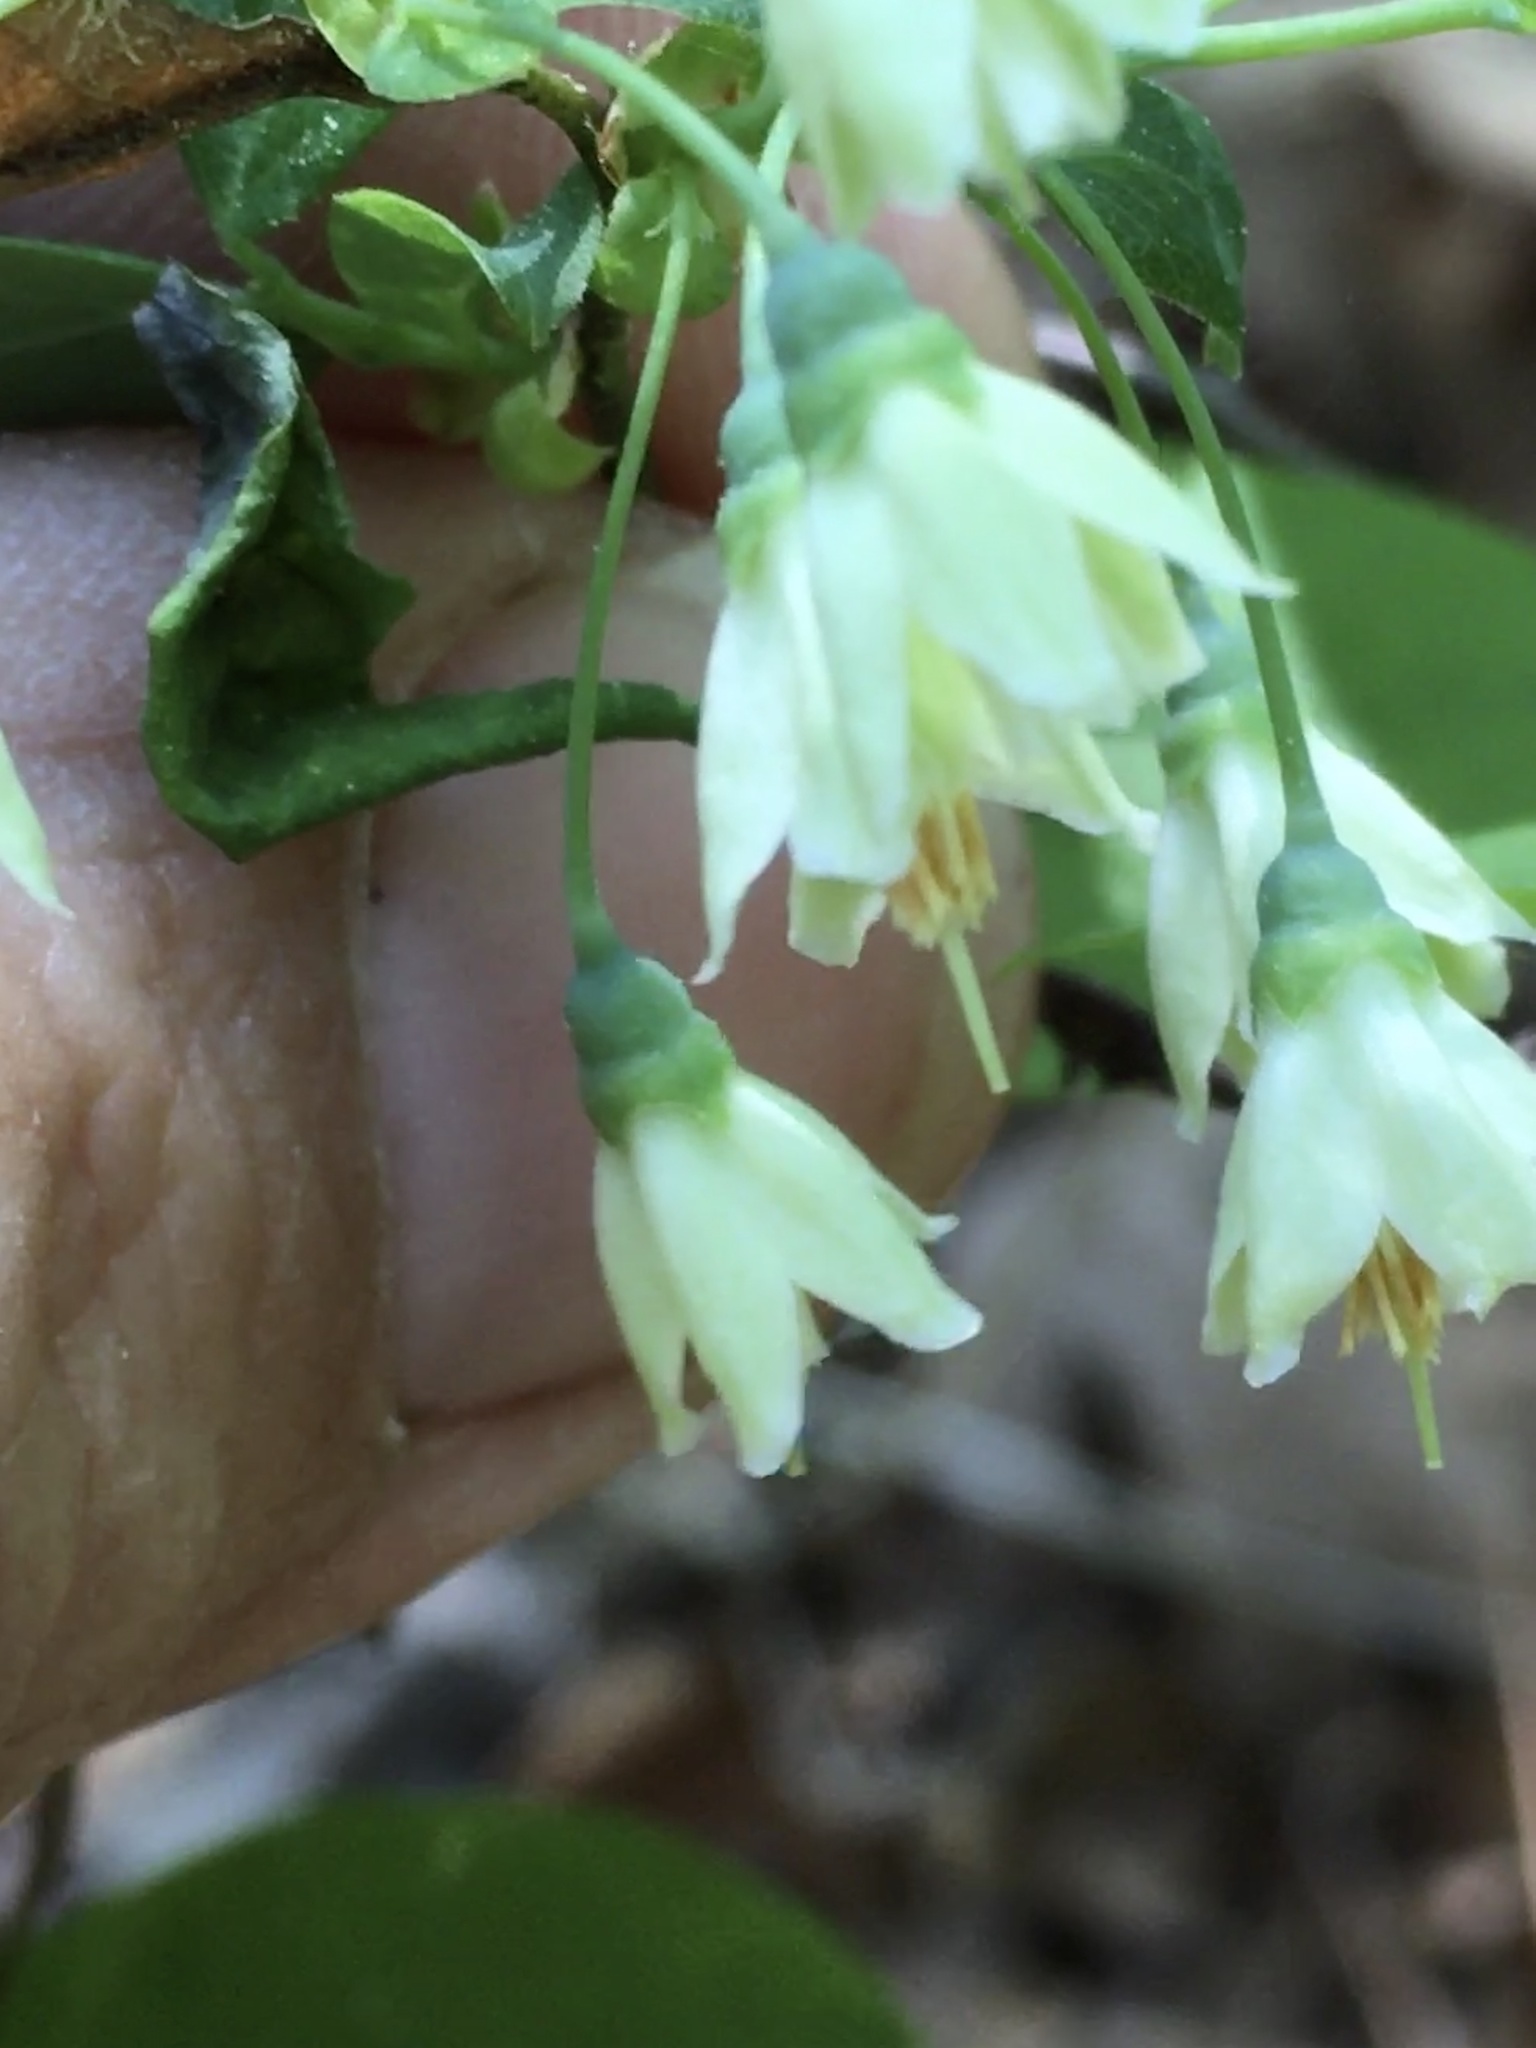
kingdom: Plantae
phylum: Tracheophyta
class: Magnoliopsida
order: Ericales
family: Ericaceae
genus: Vaccinium
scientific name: Vaccinium stamineum
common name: Deerberry
